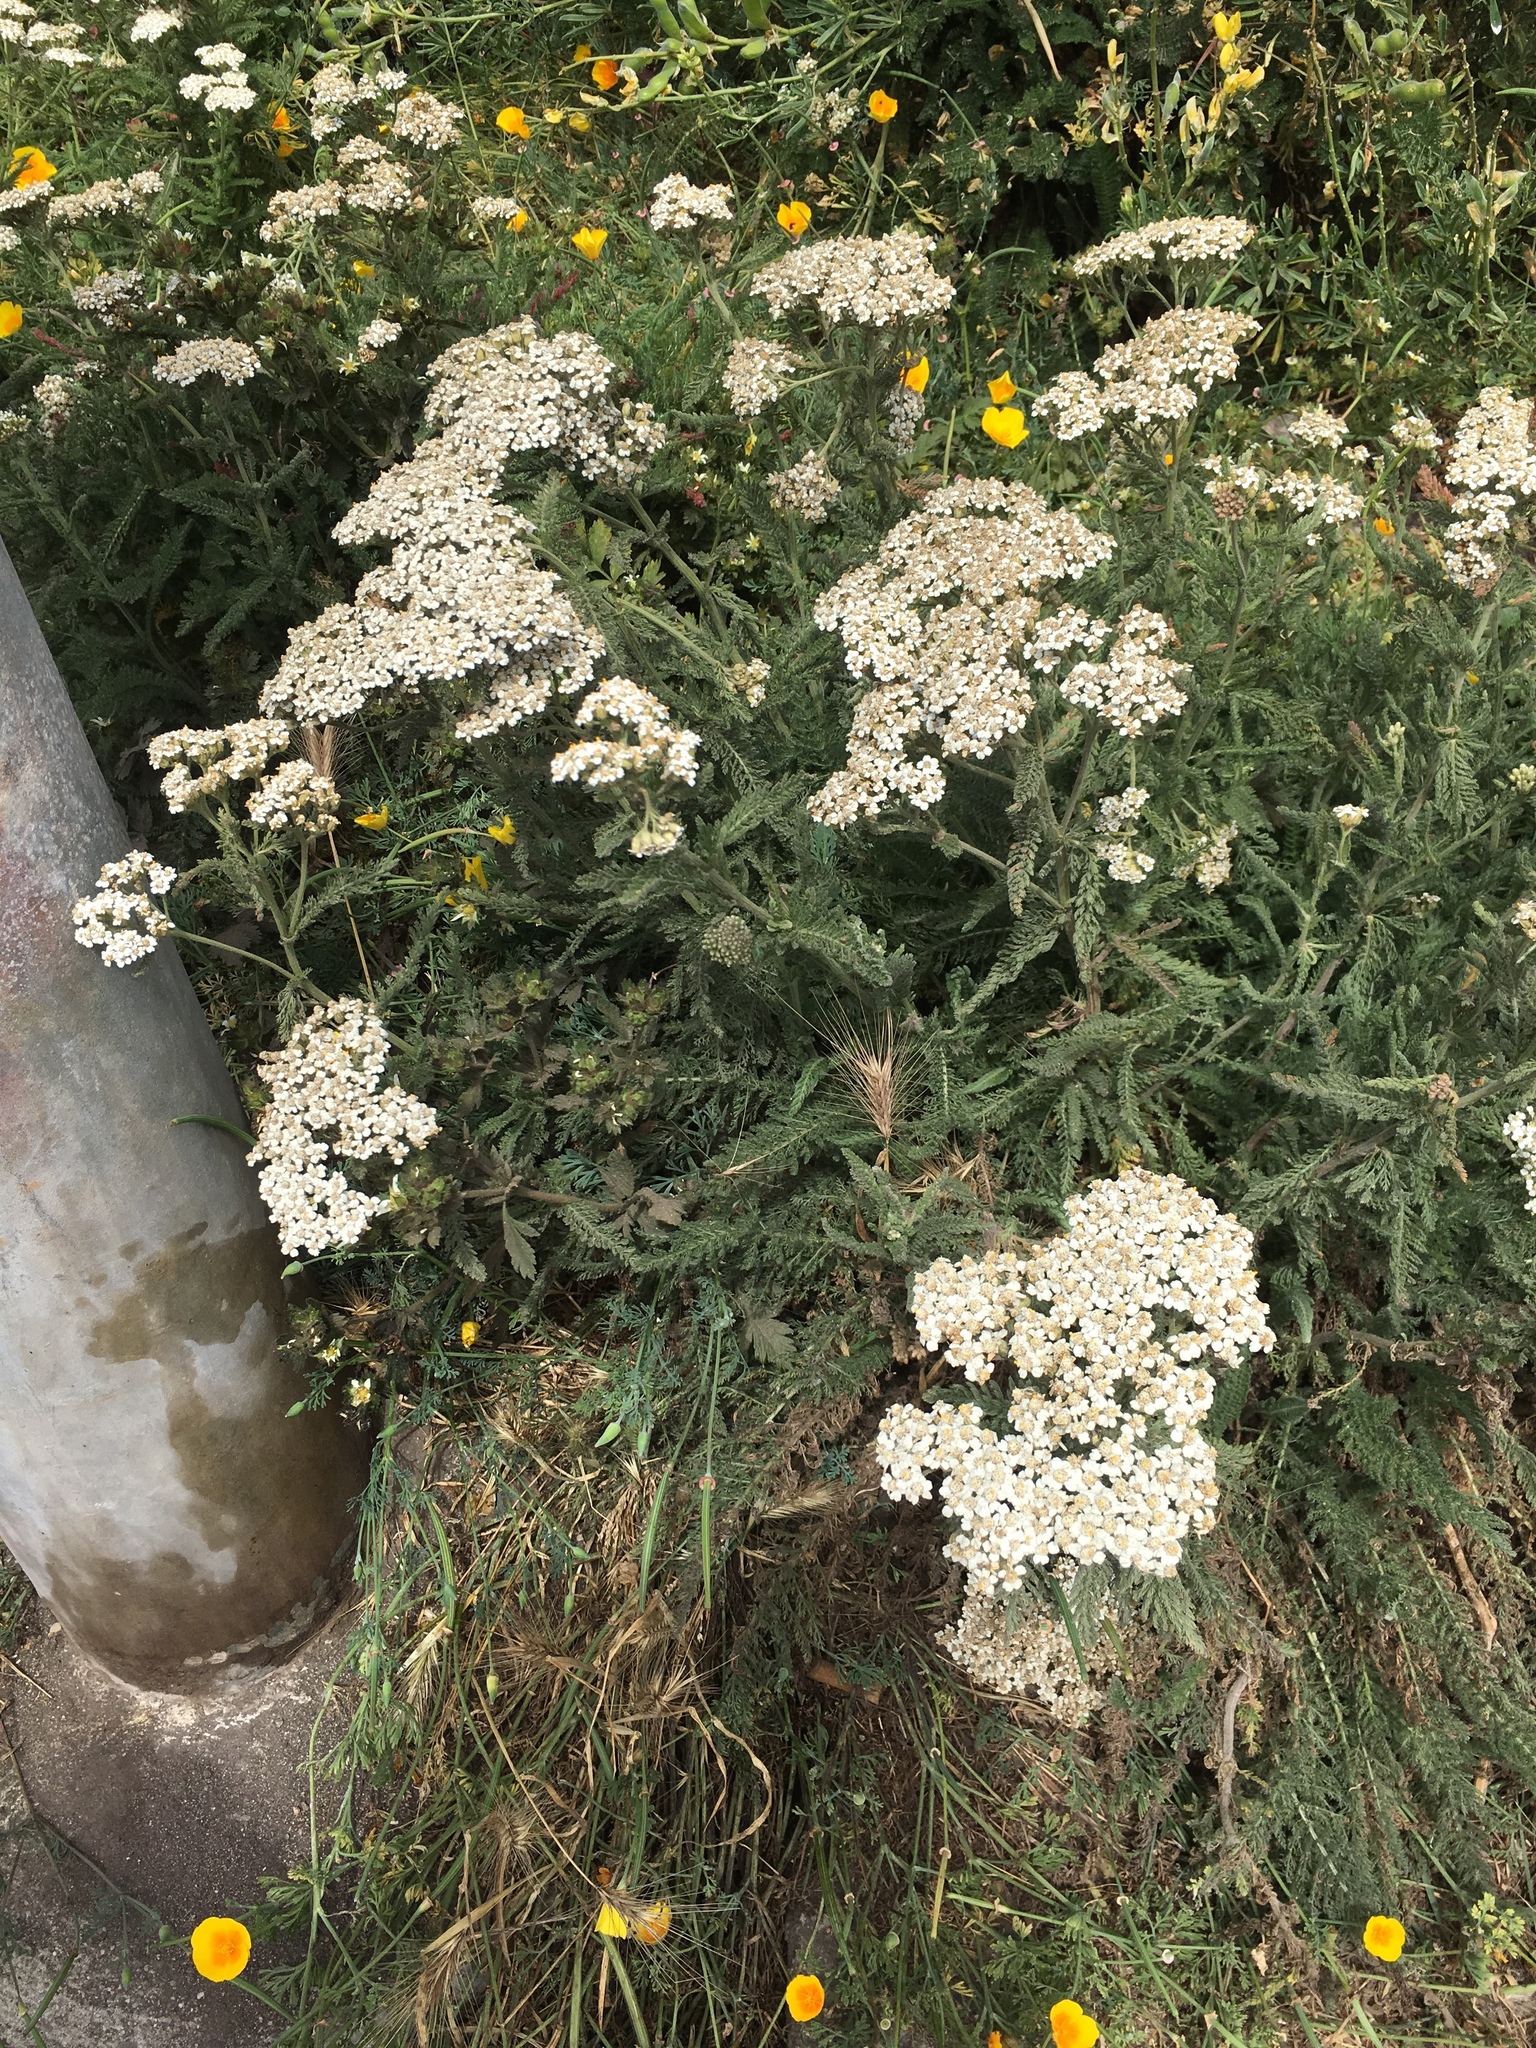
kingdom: Plantae
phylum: Tracheophyta
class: Magnoliopsida
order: Asterales
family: Asteraceae
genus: Achillea
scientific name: Achillea millefolium
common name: Yarrow
